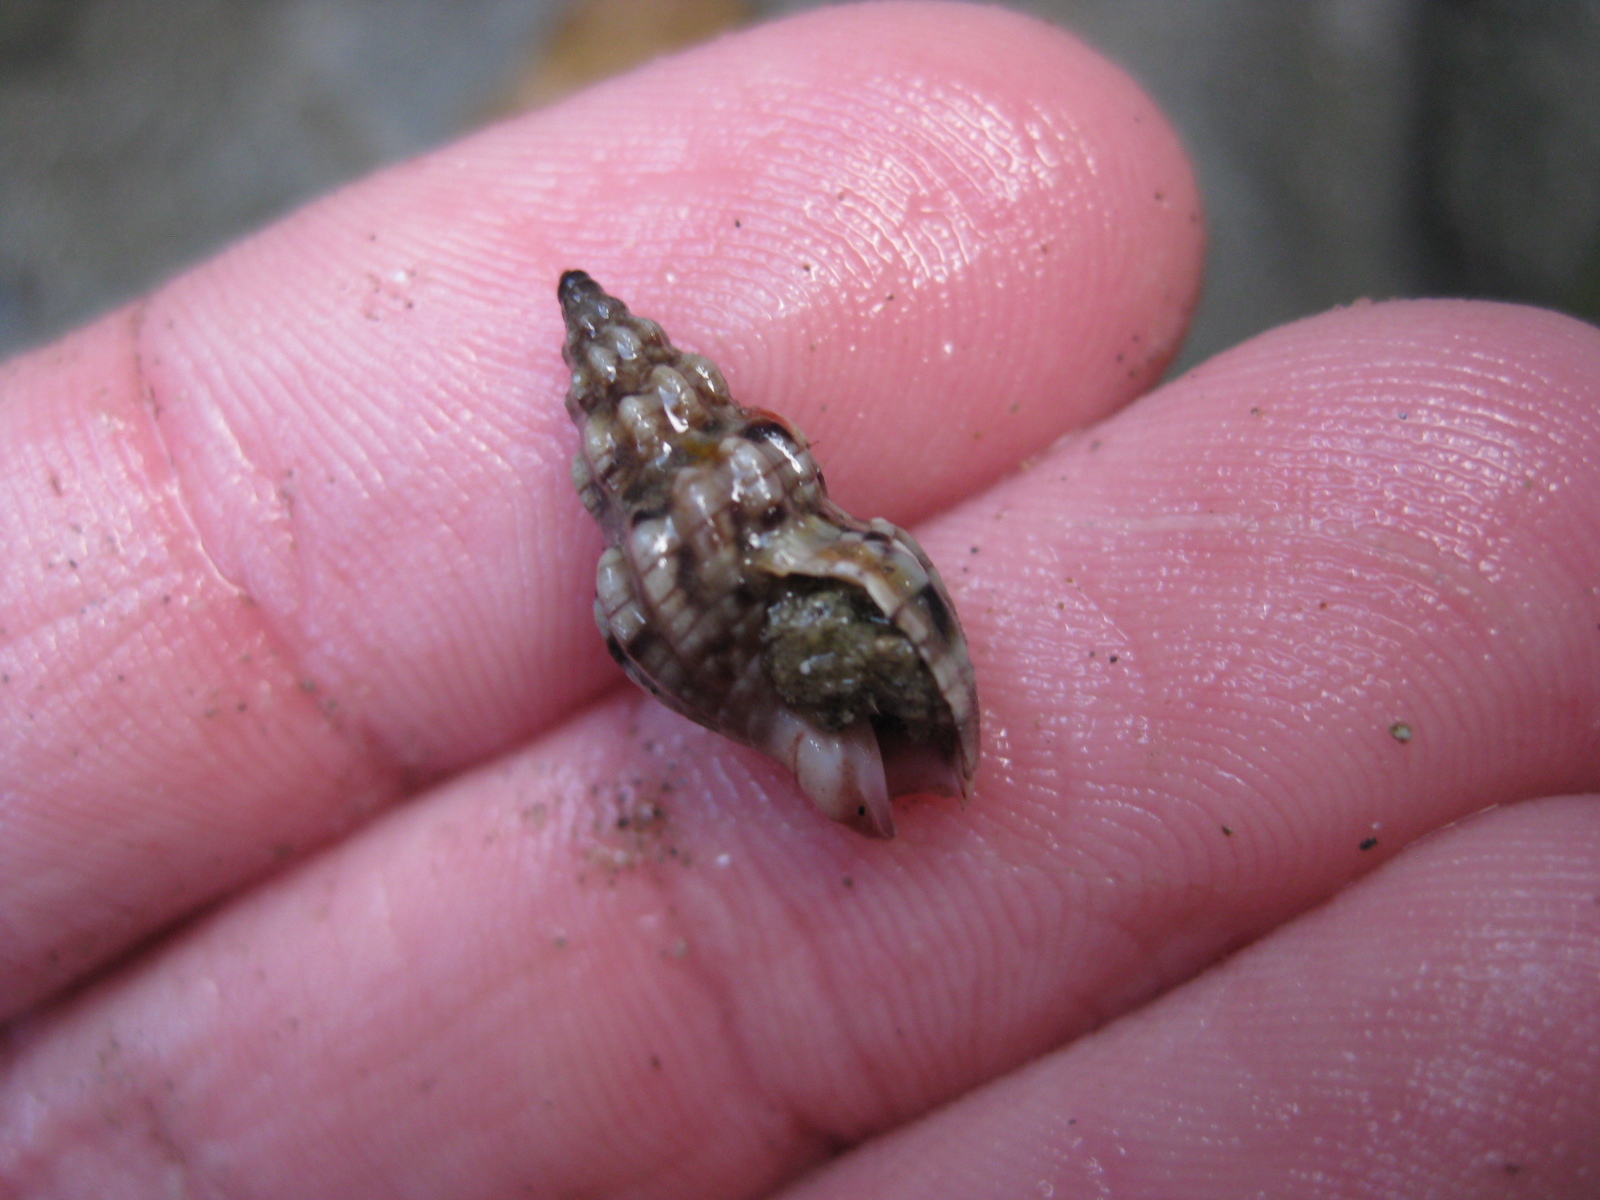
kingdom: Animalia
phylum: Mollusca
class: Gastropoda
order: Neogastropoda
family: Cominellidae
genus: Cominella
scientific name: Cominella quoyana
